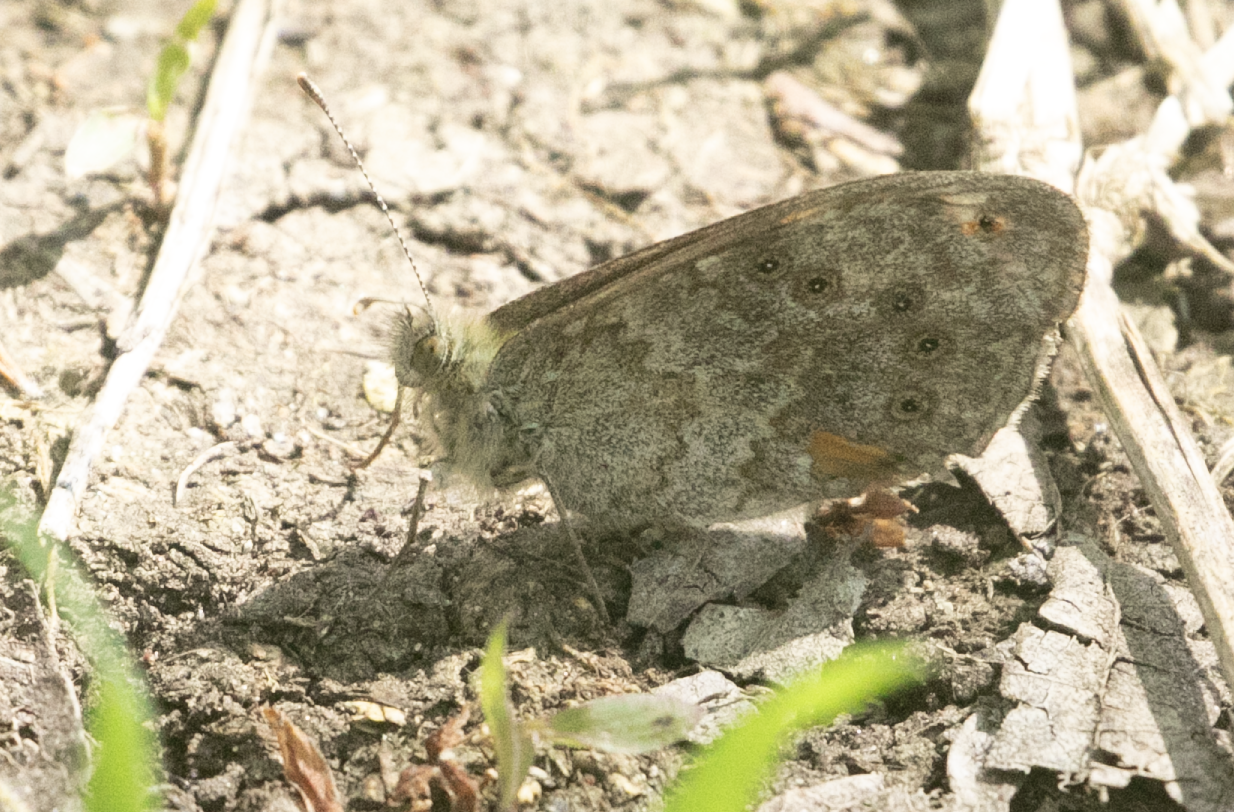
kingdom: Animalia
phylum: Arthropoda
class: Insecta
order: Lepidoptera
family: Nymphalidae
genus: Pararge
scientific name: Pararge Lasiommata megera
